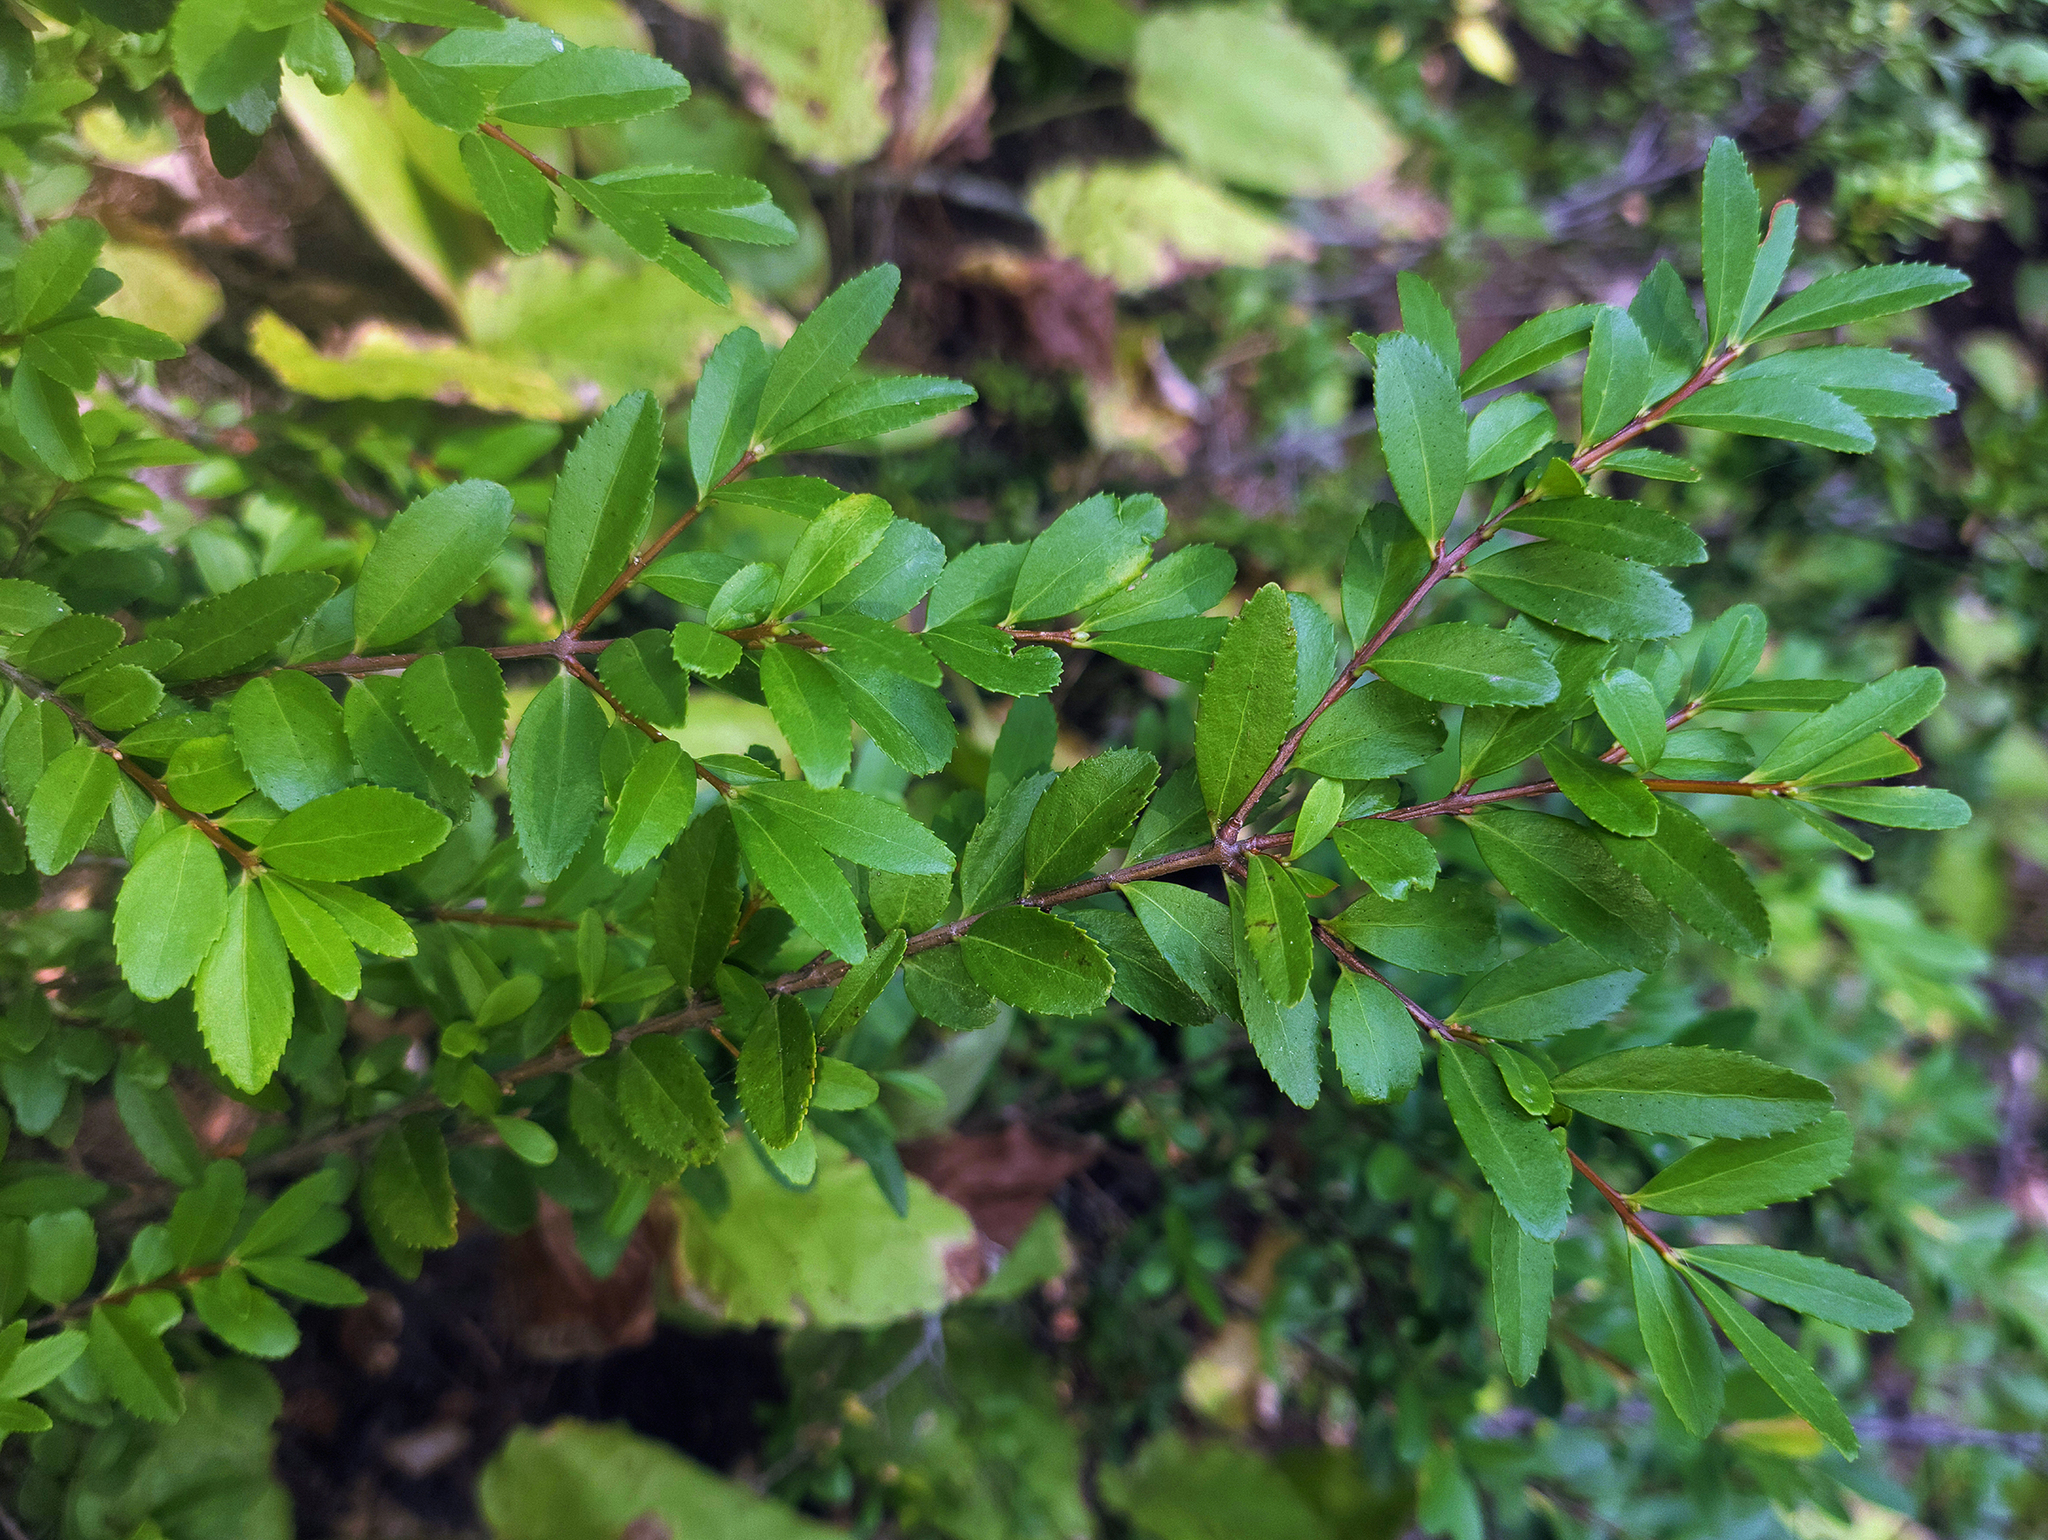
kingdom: Plantae
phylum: Tracheophyta
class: Magnoliopsida
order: Celastrales
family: Celastraceae
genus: Paxistima
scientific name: Paxistima myrsinites
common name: Mountain-lover
